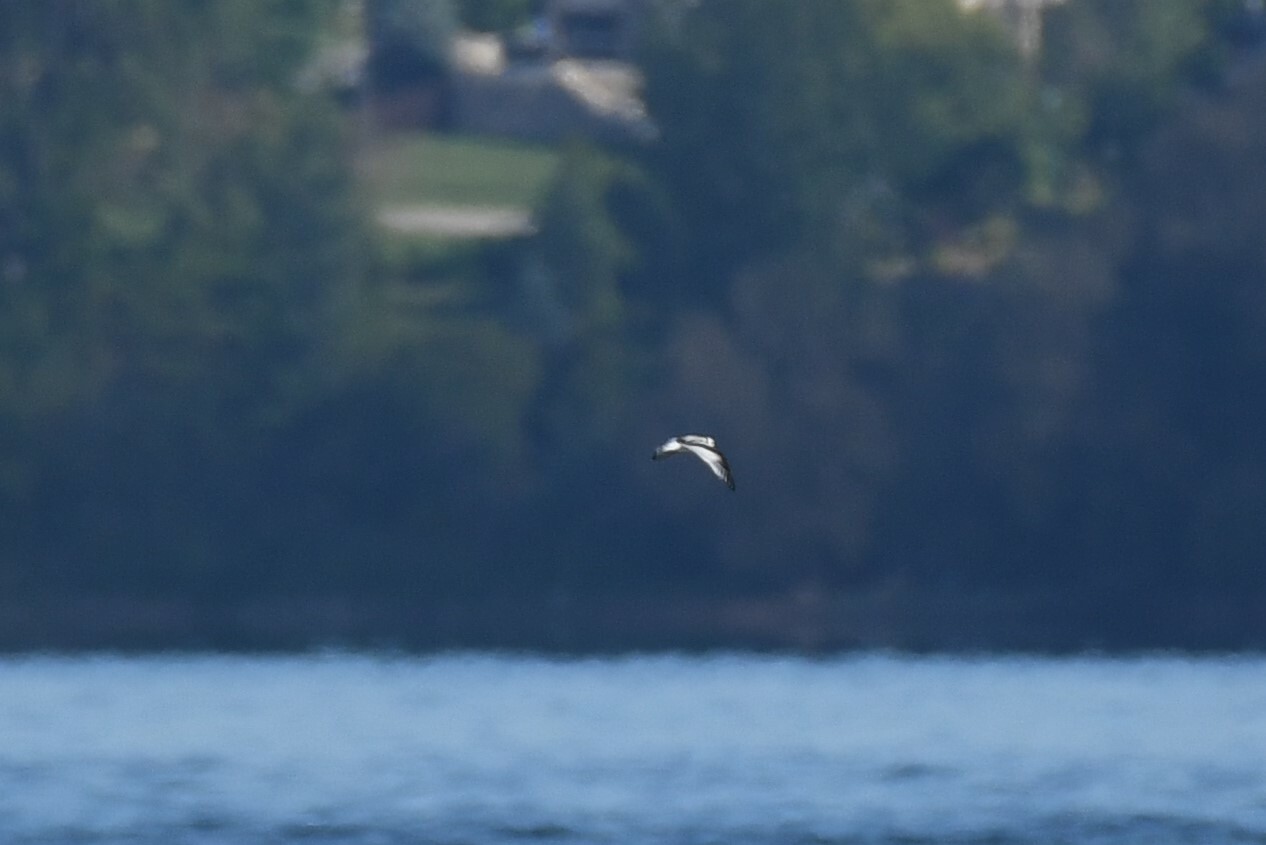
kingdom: Animalia
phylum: Chordata
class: Aves
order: Charadriiformes
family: Laridae
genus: Hydrocoloeus
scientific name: Hydrocoloeus minutus
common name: Little gull
